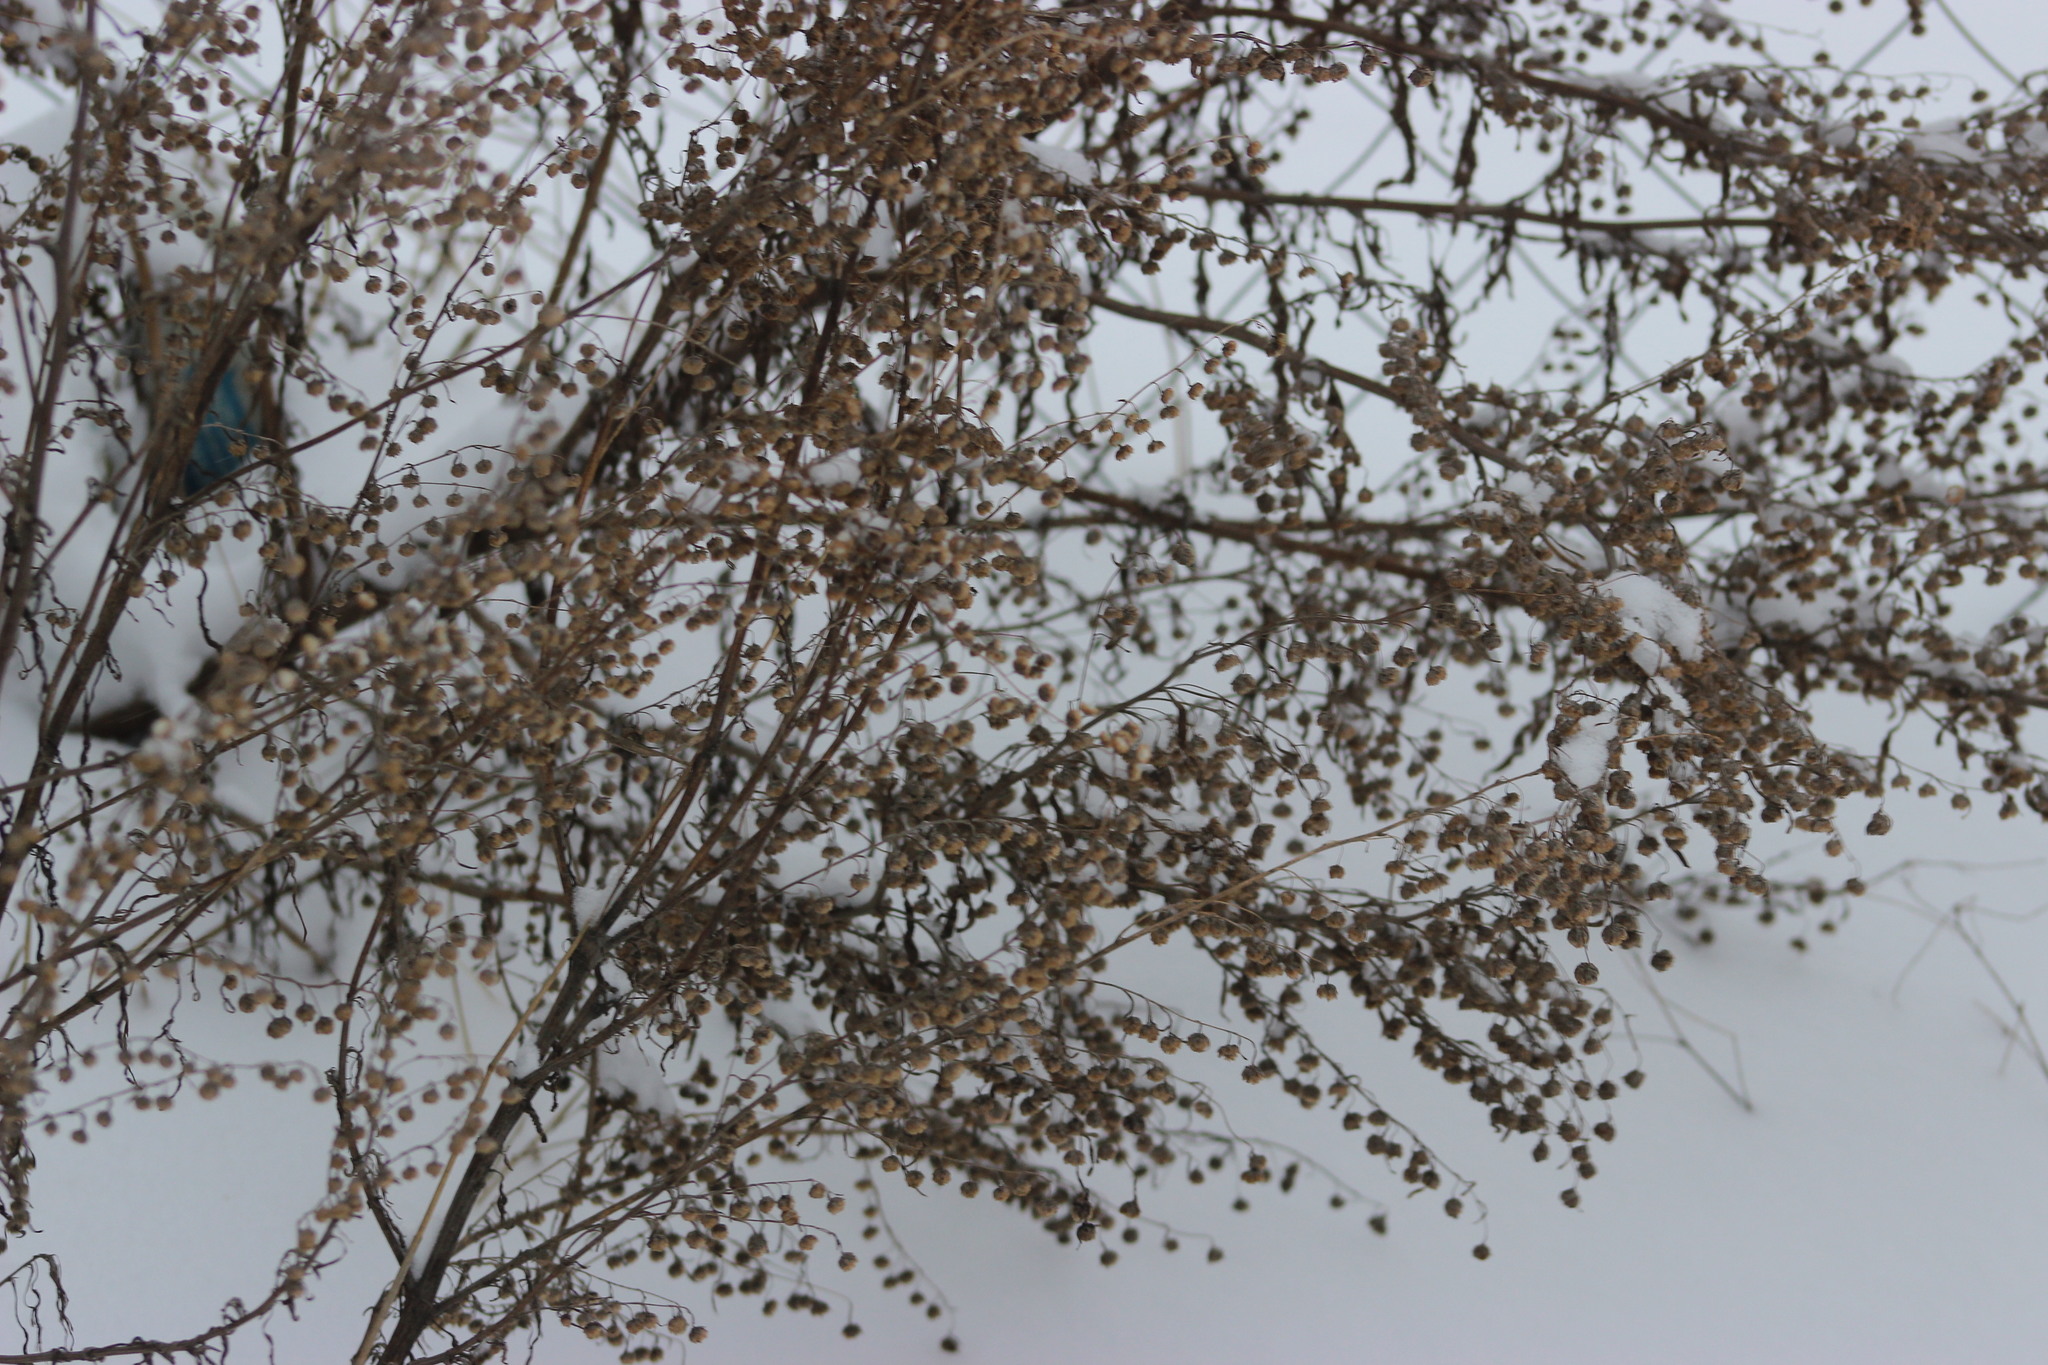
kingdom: Plantae
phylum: Tracheophyta
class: Magnoliopsida
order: Asterales
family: Asteraceae
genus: Artemisia
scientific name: Artemisia absinthium
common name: Wormwood
